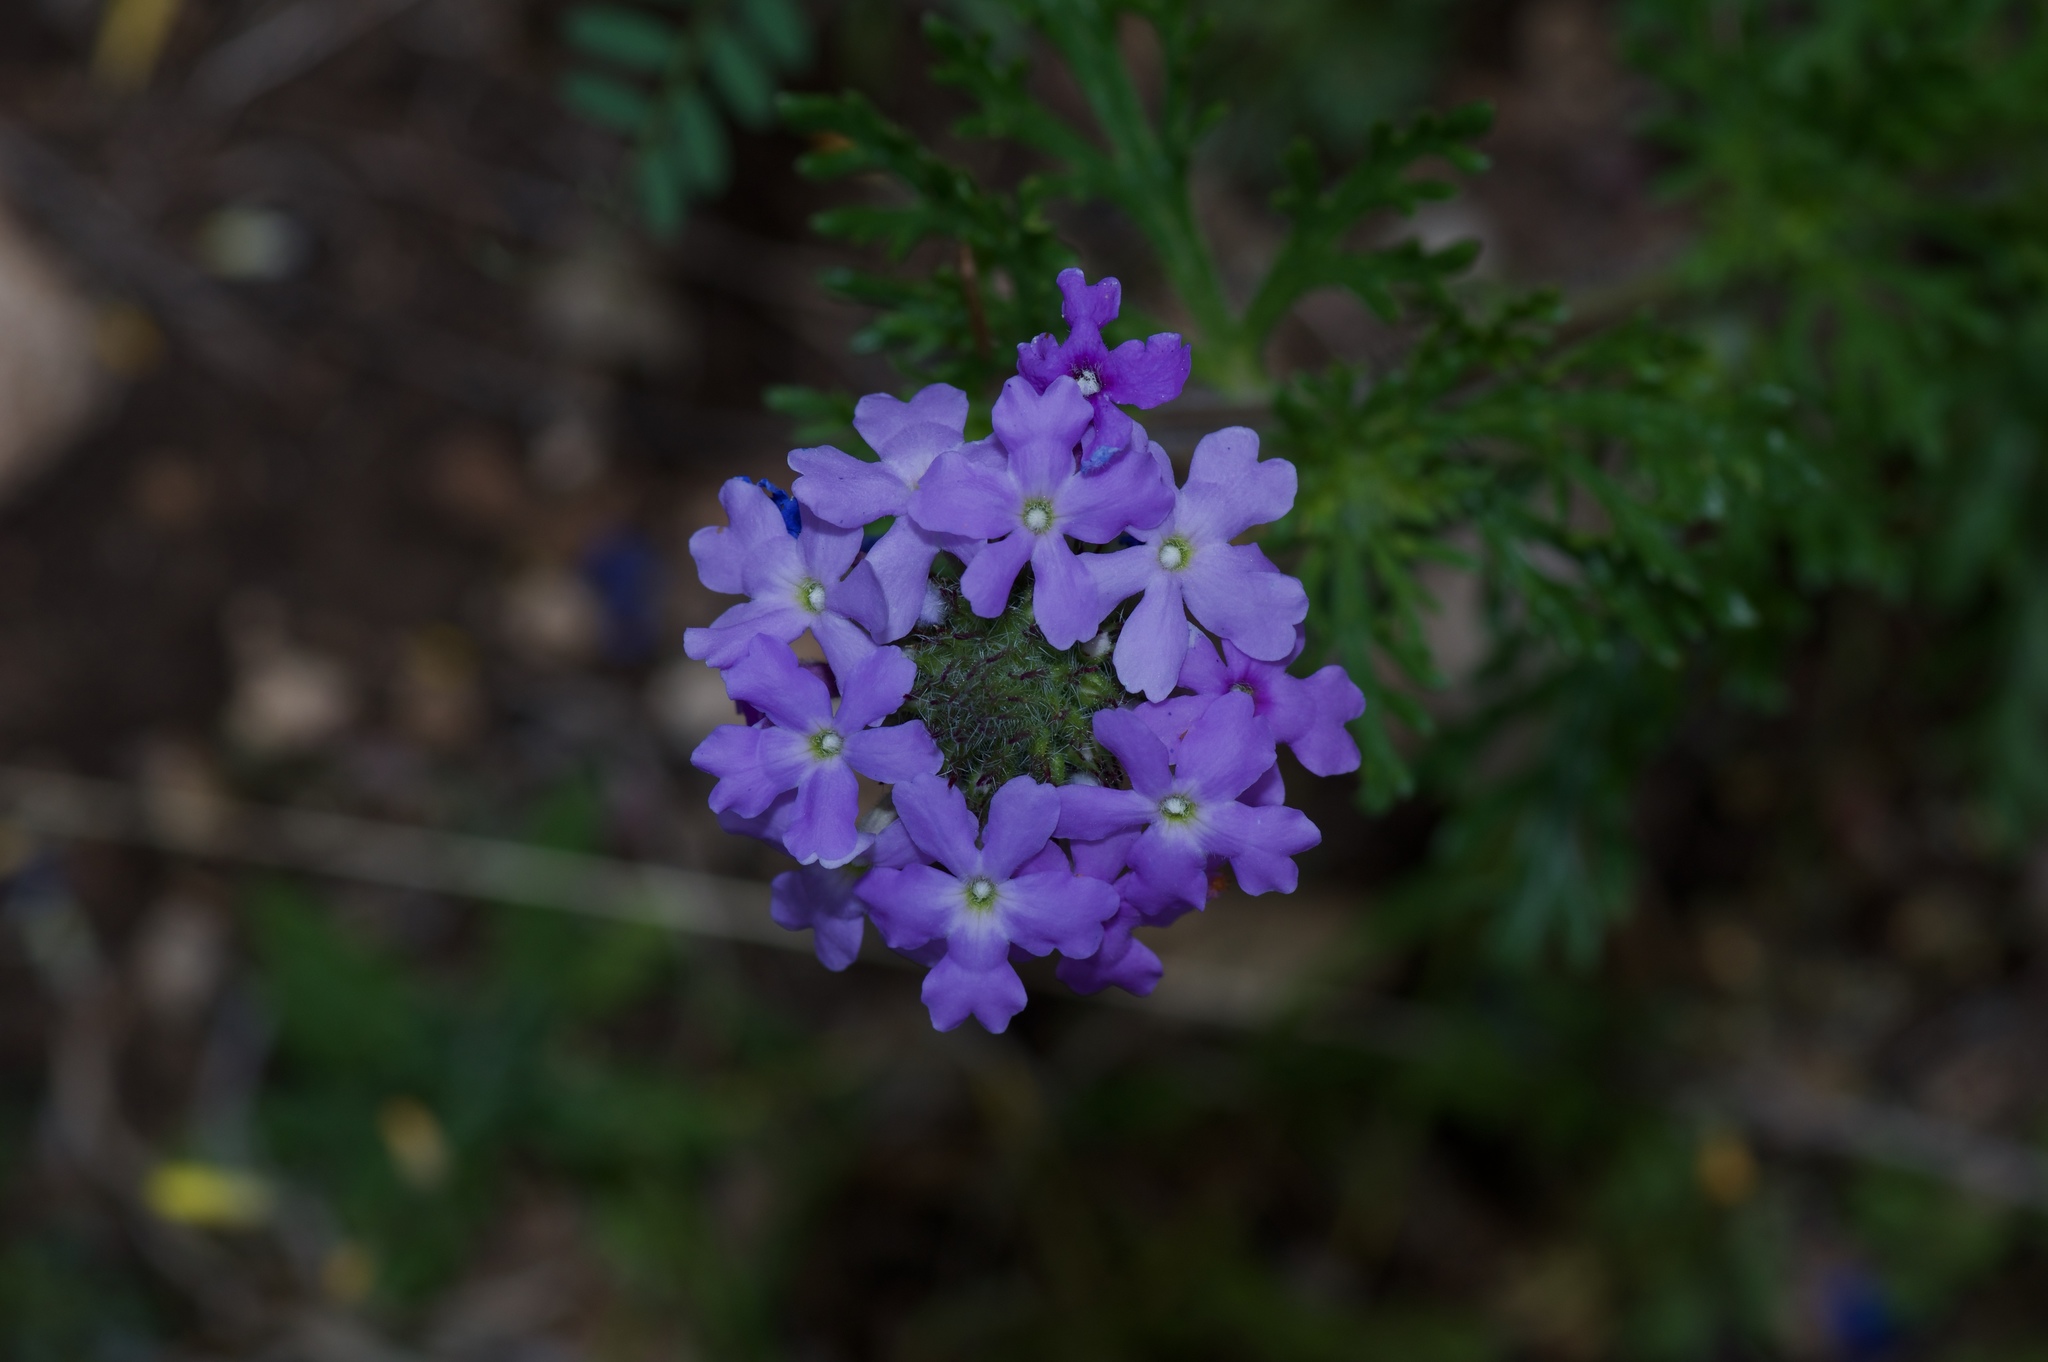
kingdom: Plantae
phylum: Tracheophyta
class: Magnoliopsida
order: Lamiales
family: Verbenaceae
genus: Verbena
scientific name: Verbena bipinnatifida
